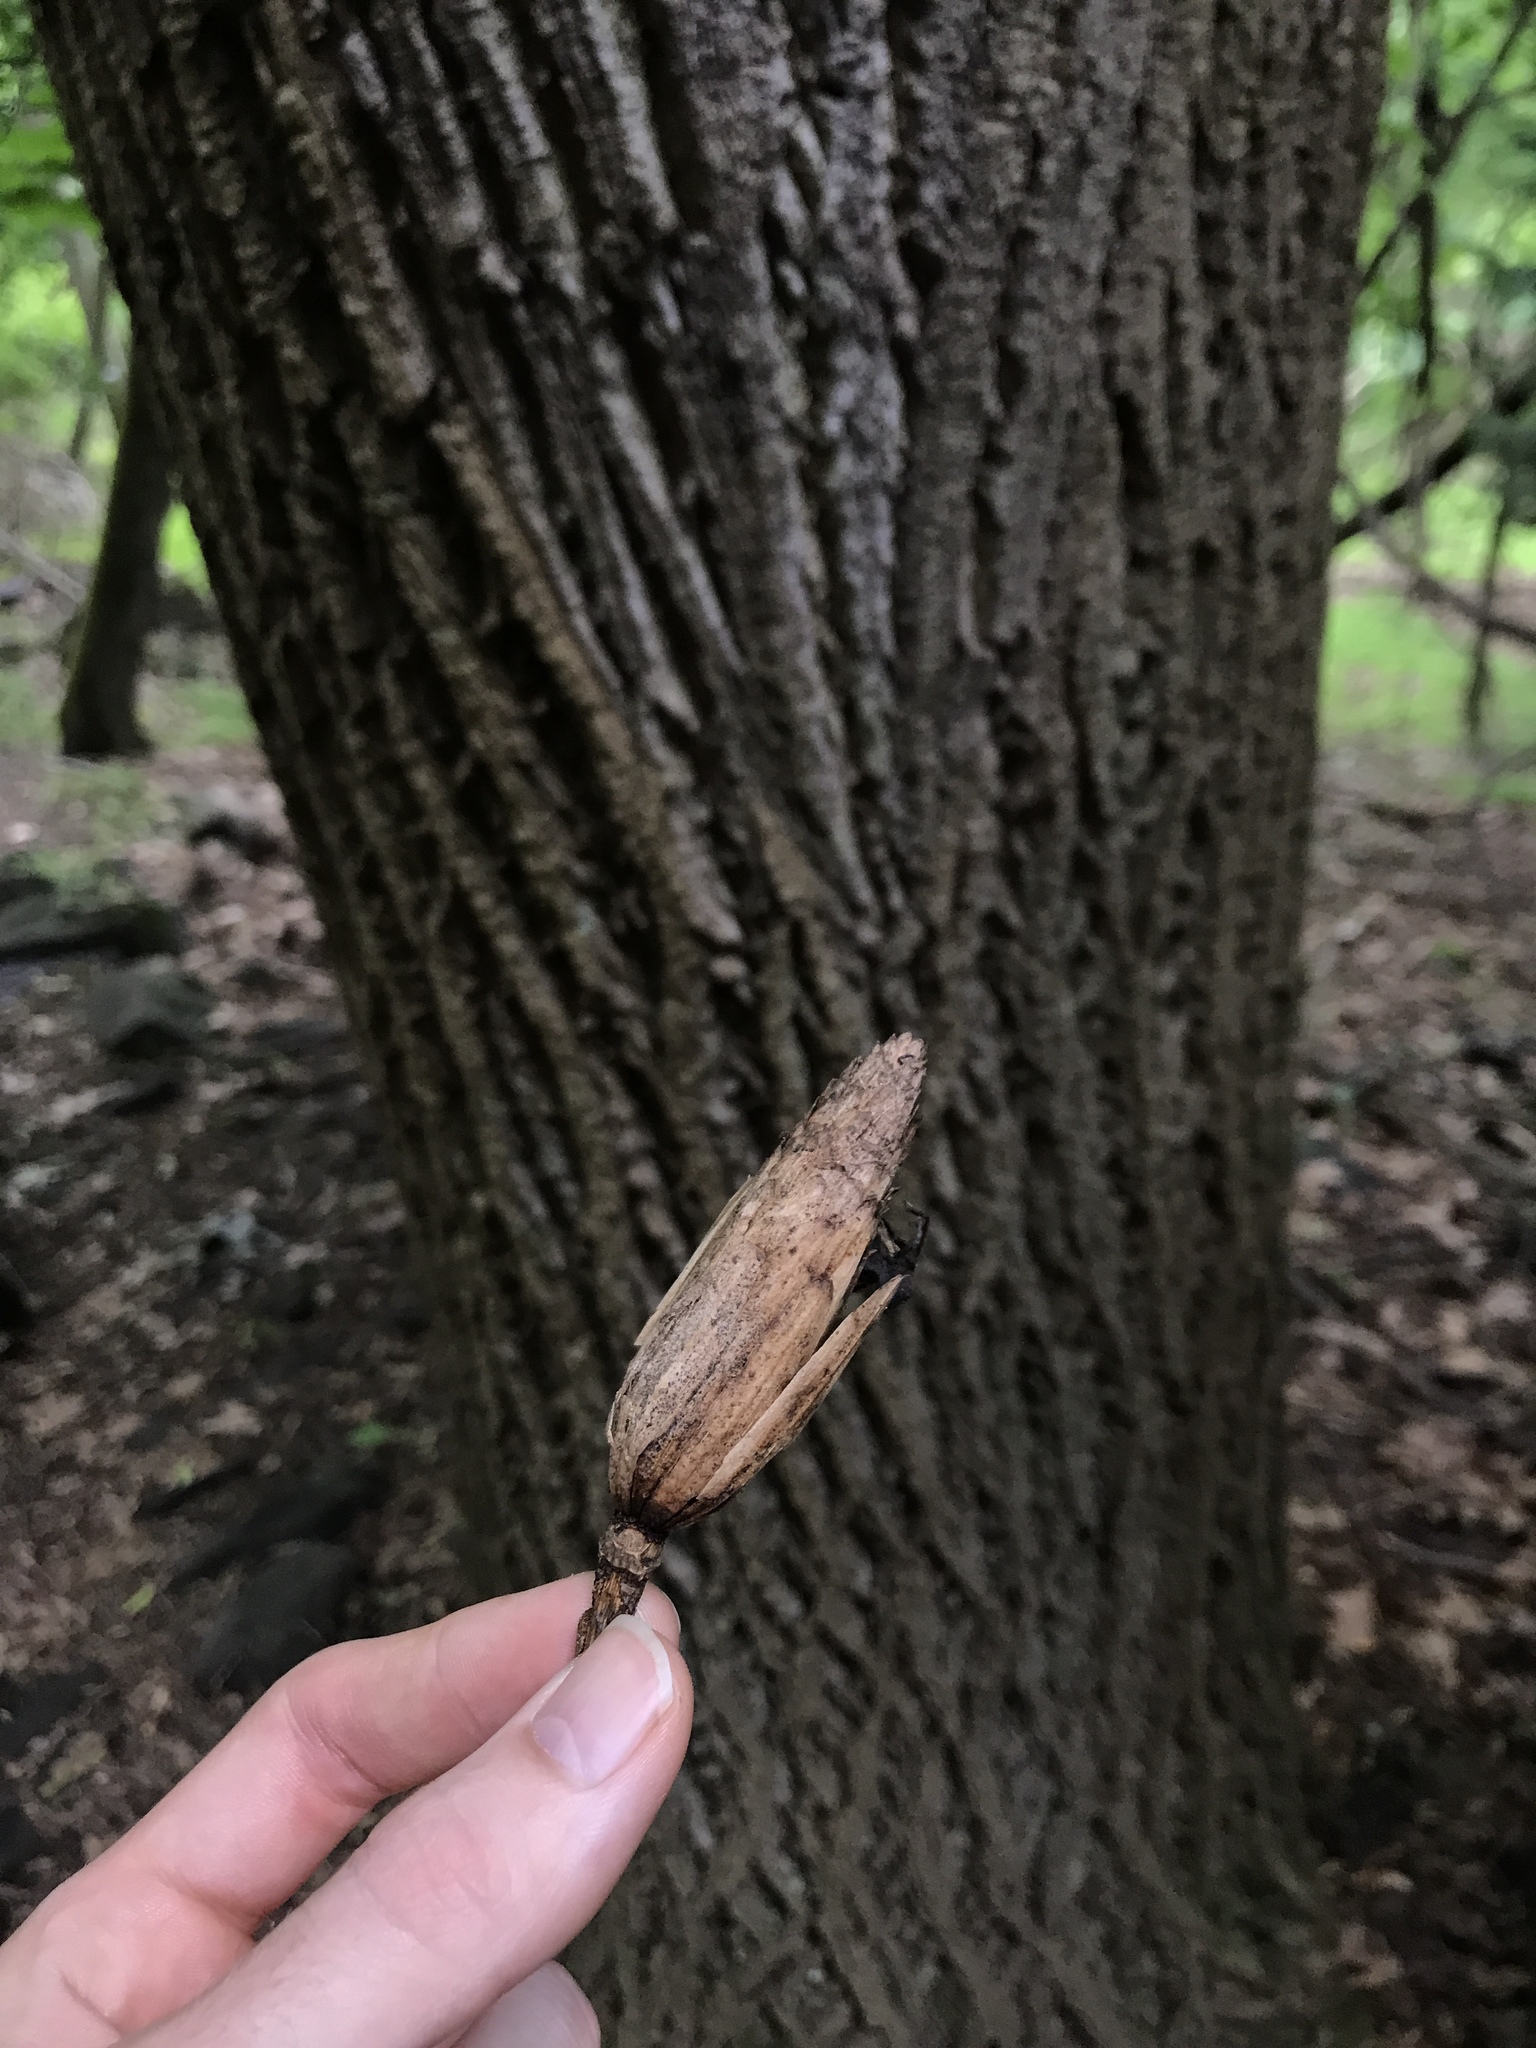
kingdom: Plantae
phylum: Tracheophyta
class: Magnoliopsida
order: Magnoliales
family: Magnoliaceae
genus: Liriodendron
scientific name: Liriodendron tulipifera
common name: Tulip tree
